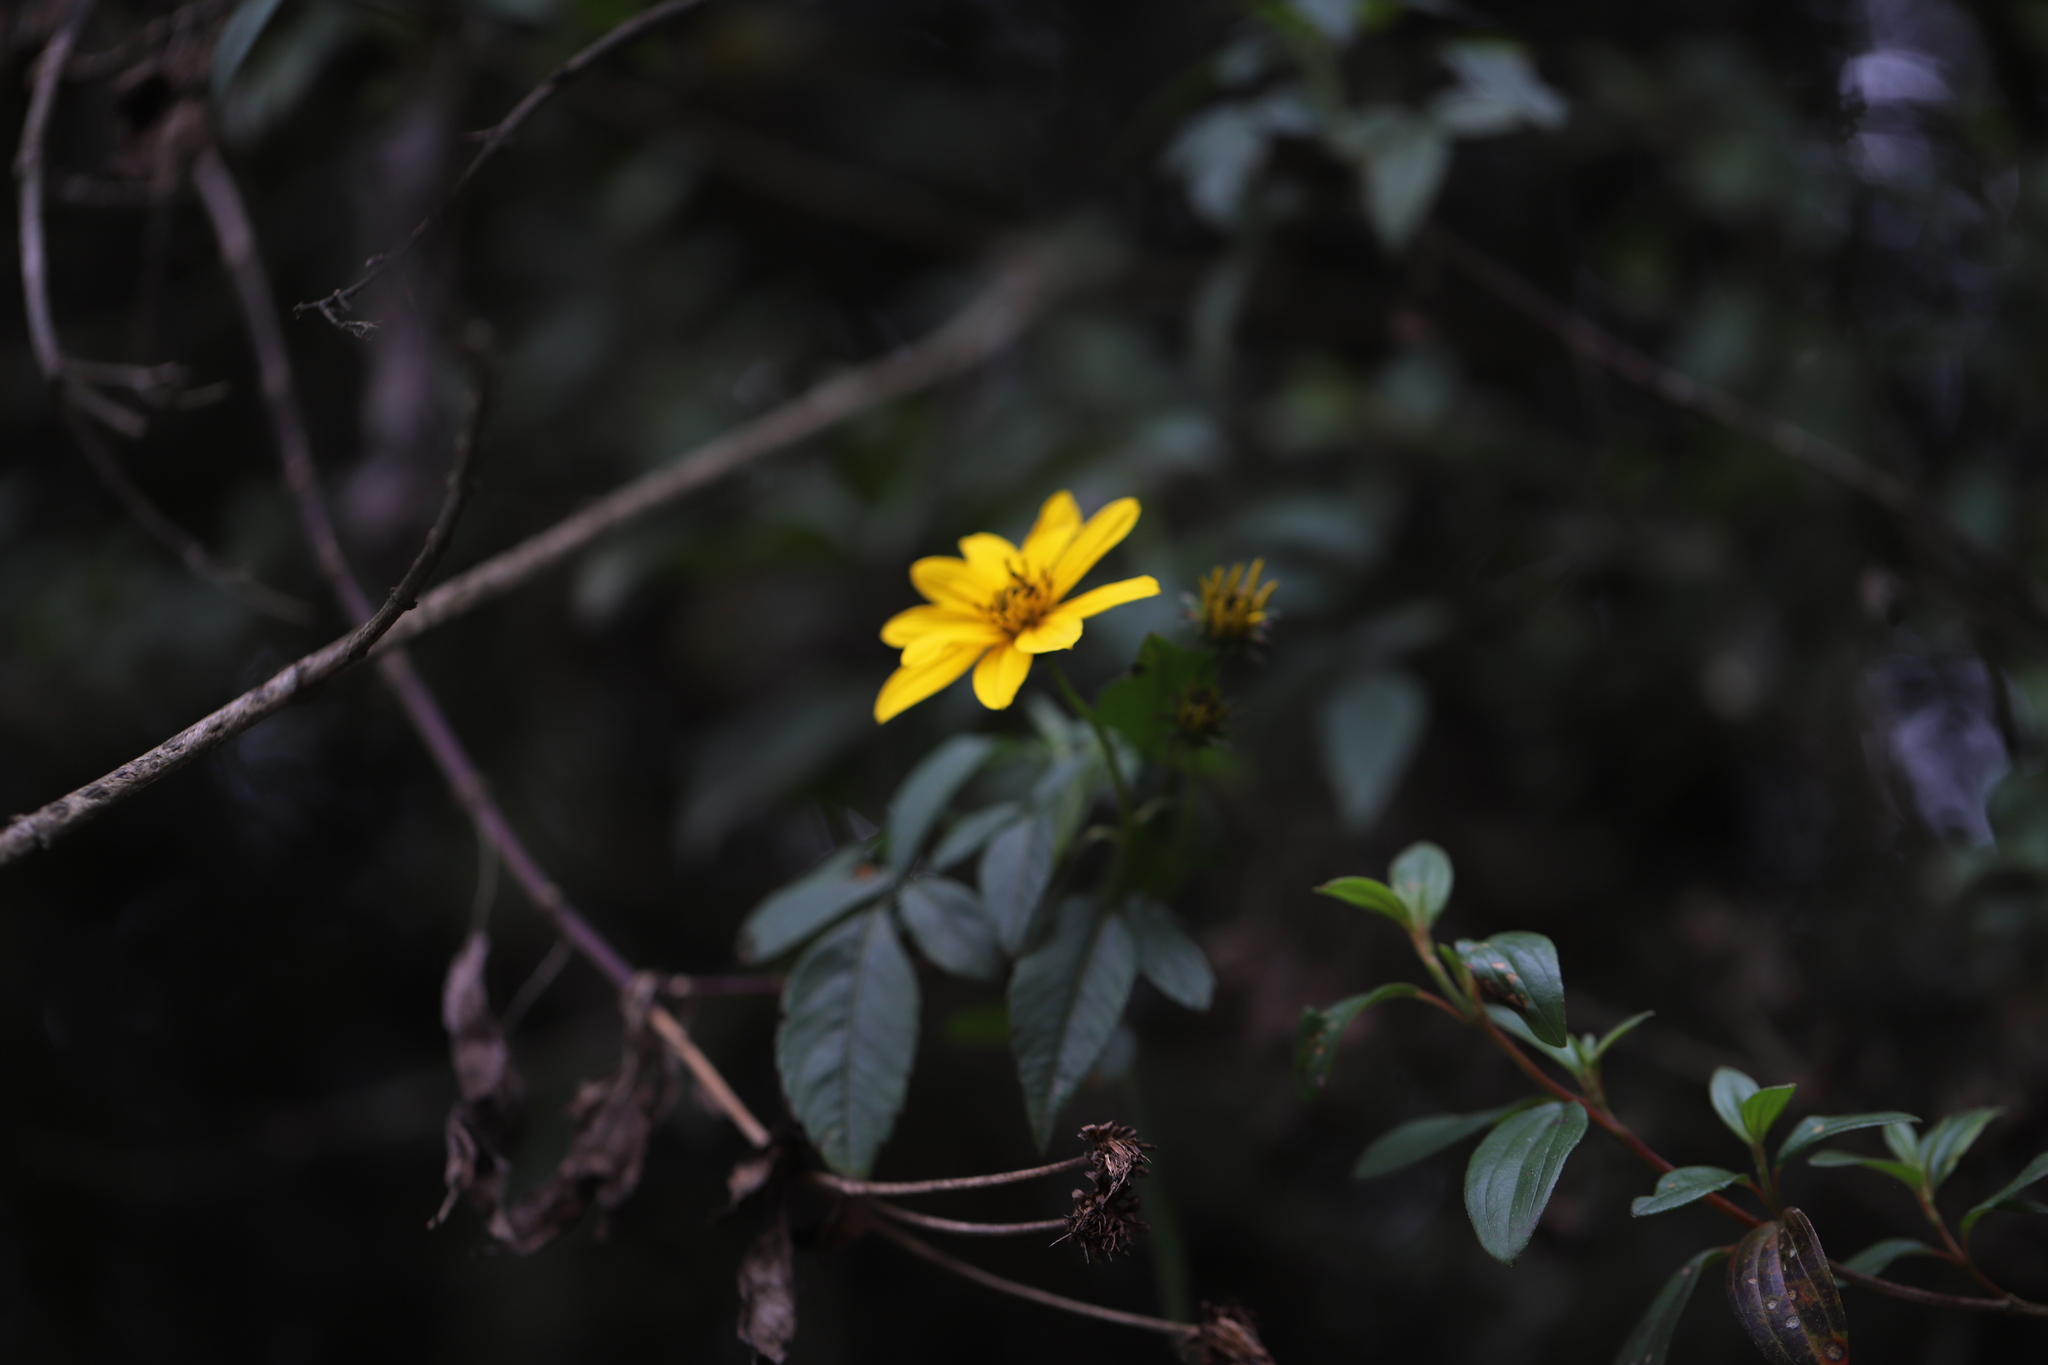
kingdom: Plantae
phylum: Tracheophyta
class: Magnoliopsida
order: Asterales
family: Asteraceae
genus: Bidens
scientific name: Bidens rubifolia
